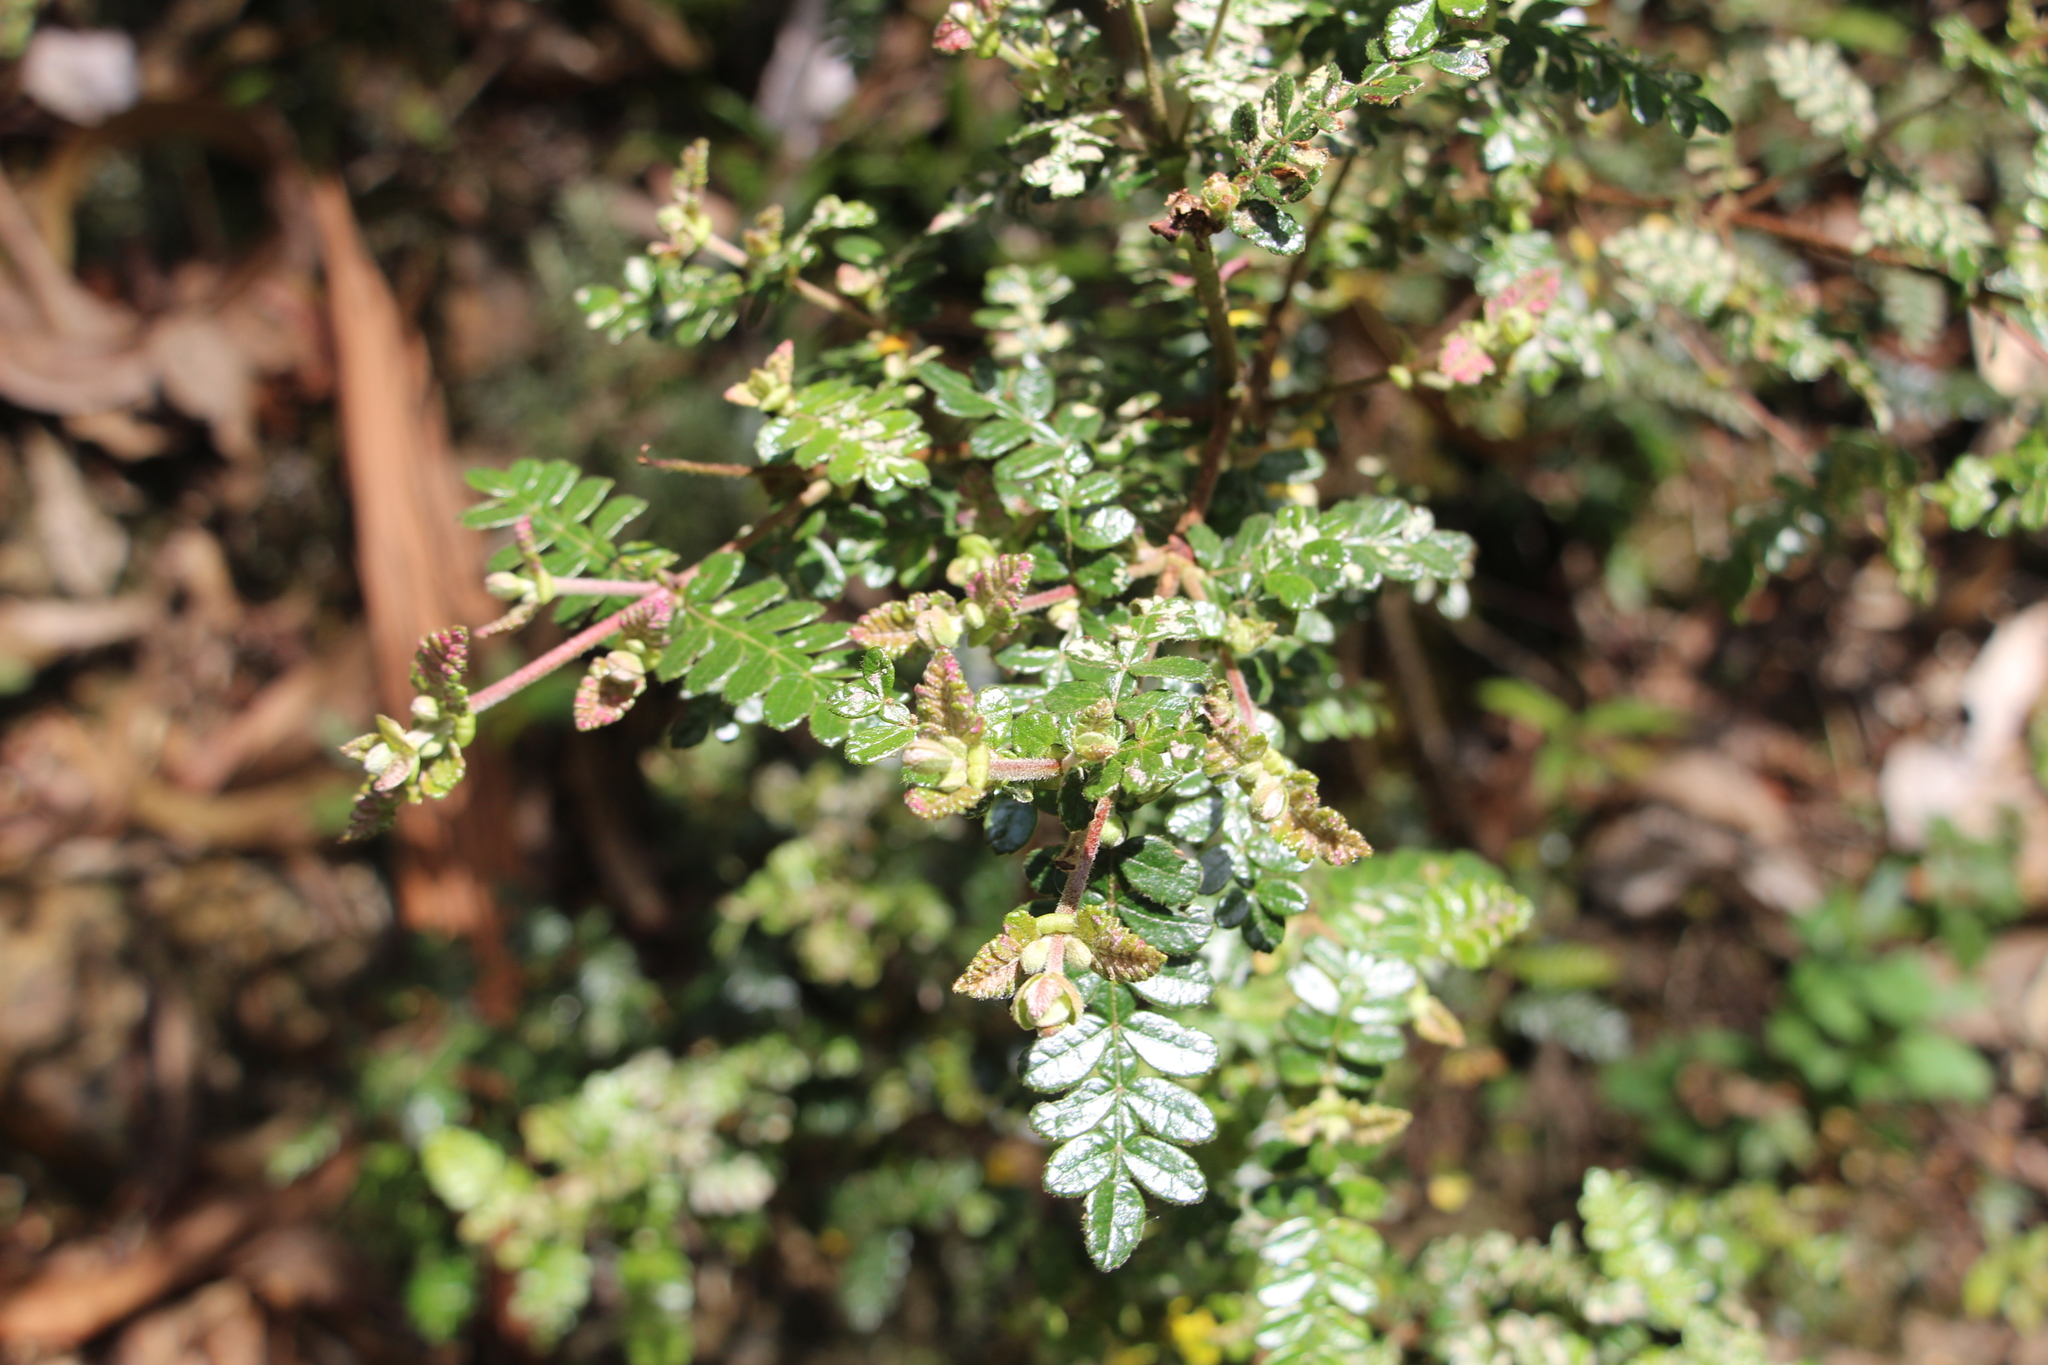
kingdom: Plantae
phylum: Tracheophyta
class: Magnoliopsida
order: Oxalidales
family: Cunoniaceae
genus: Weinmannia
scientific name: Weinmannia tomentosa
